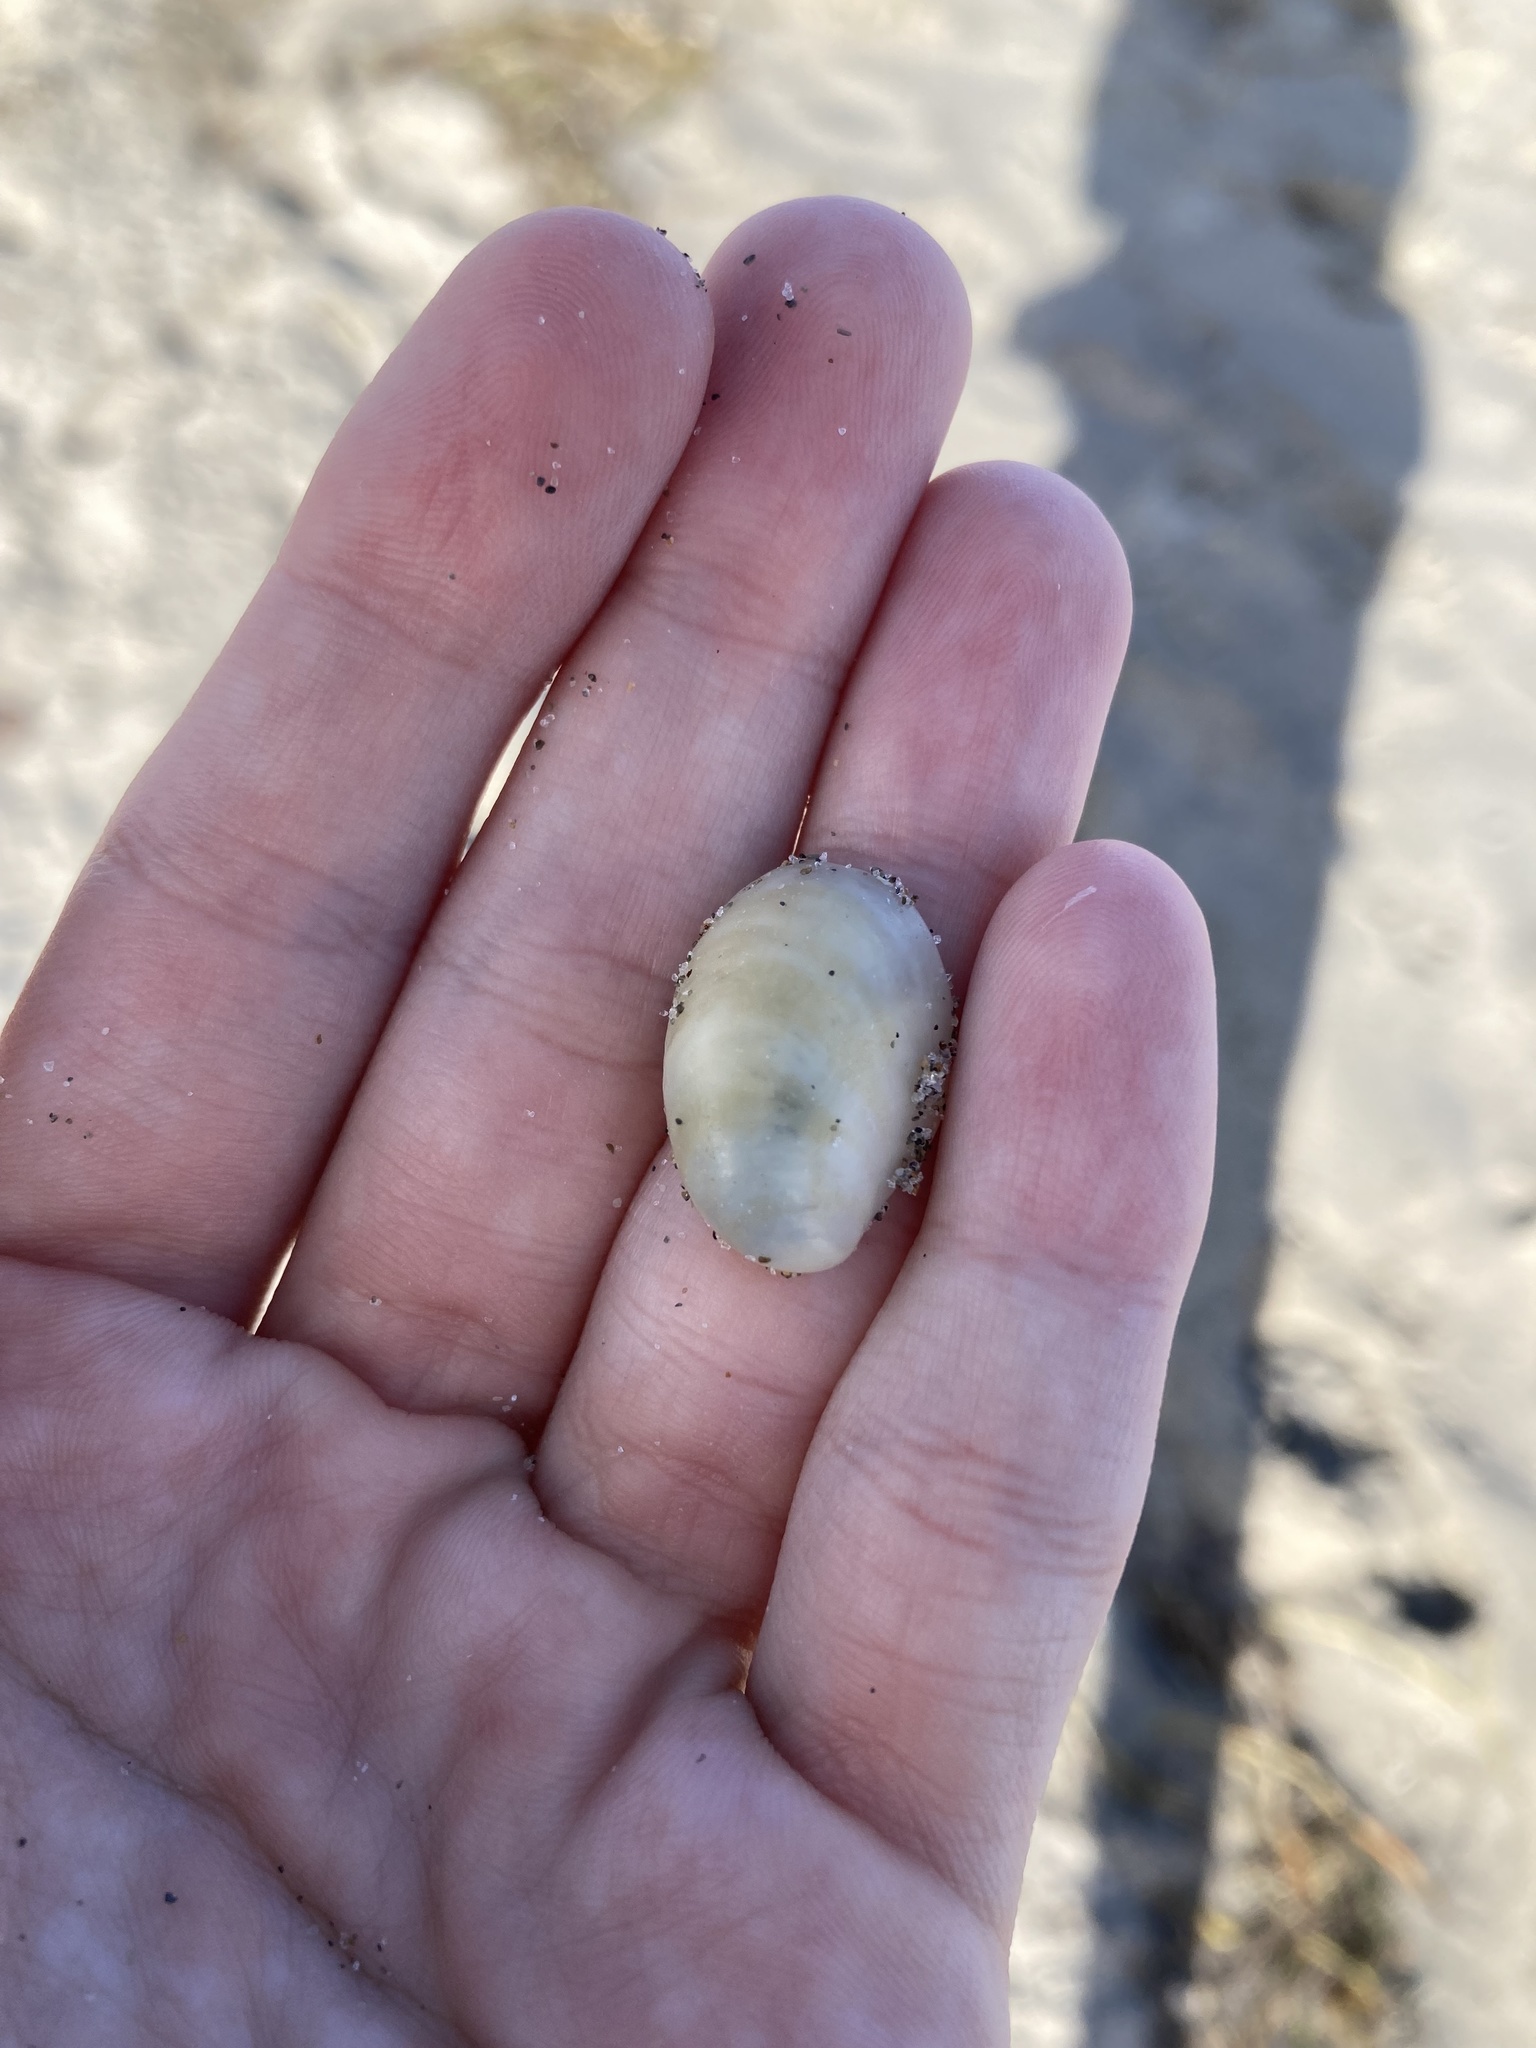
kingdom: Animalia
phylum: Mollusca
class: Gastropoda
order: Littorinimorpha
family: Calyptraeidae
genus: Crepidula
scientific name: Crepidula fornicata
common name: Slipper limpet
